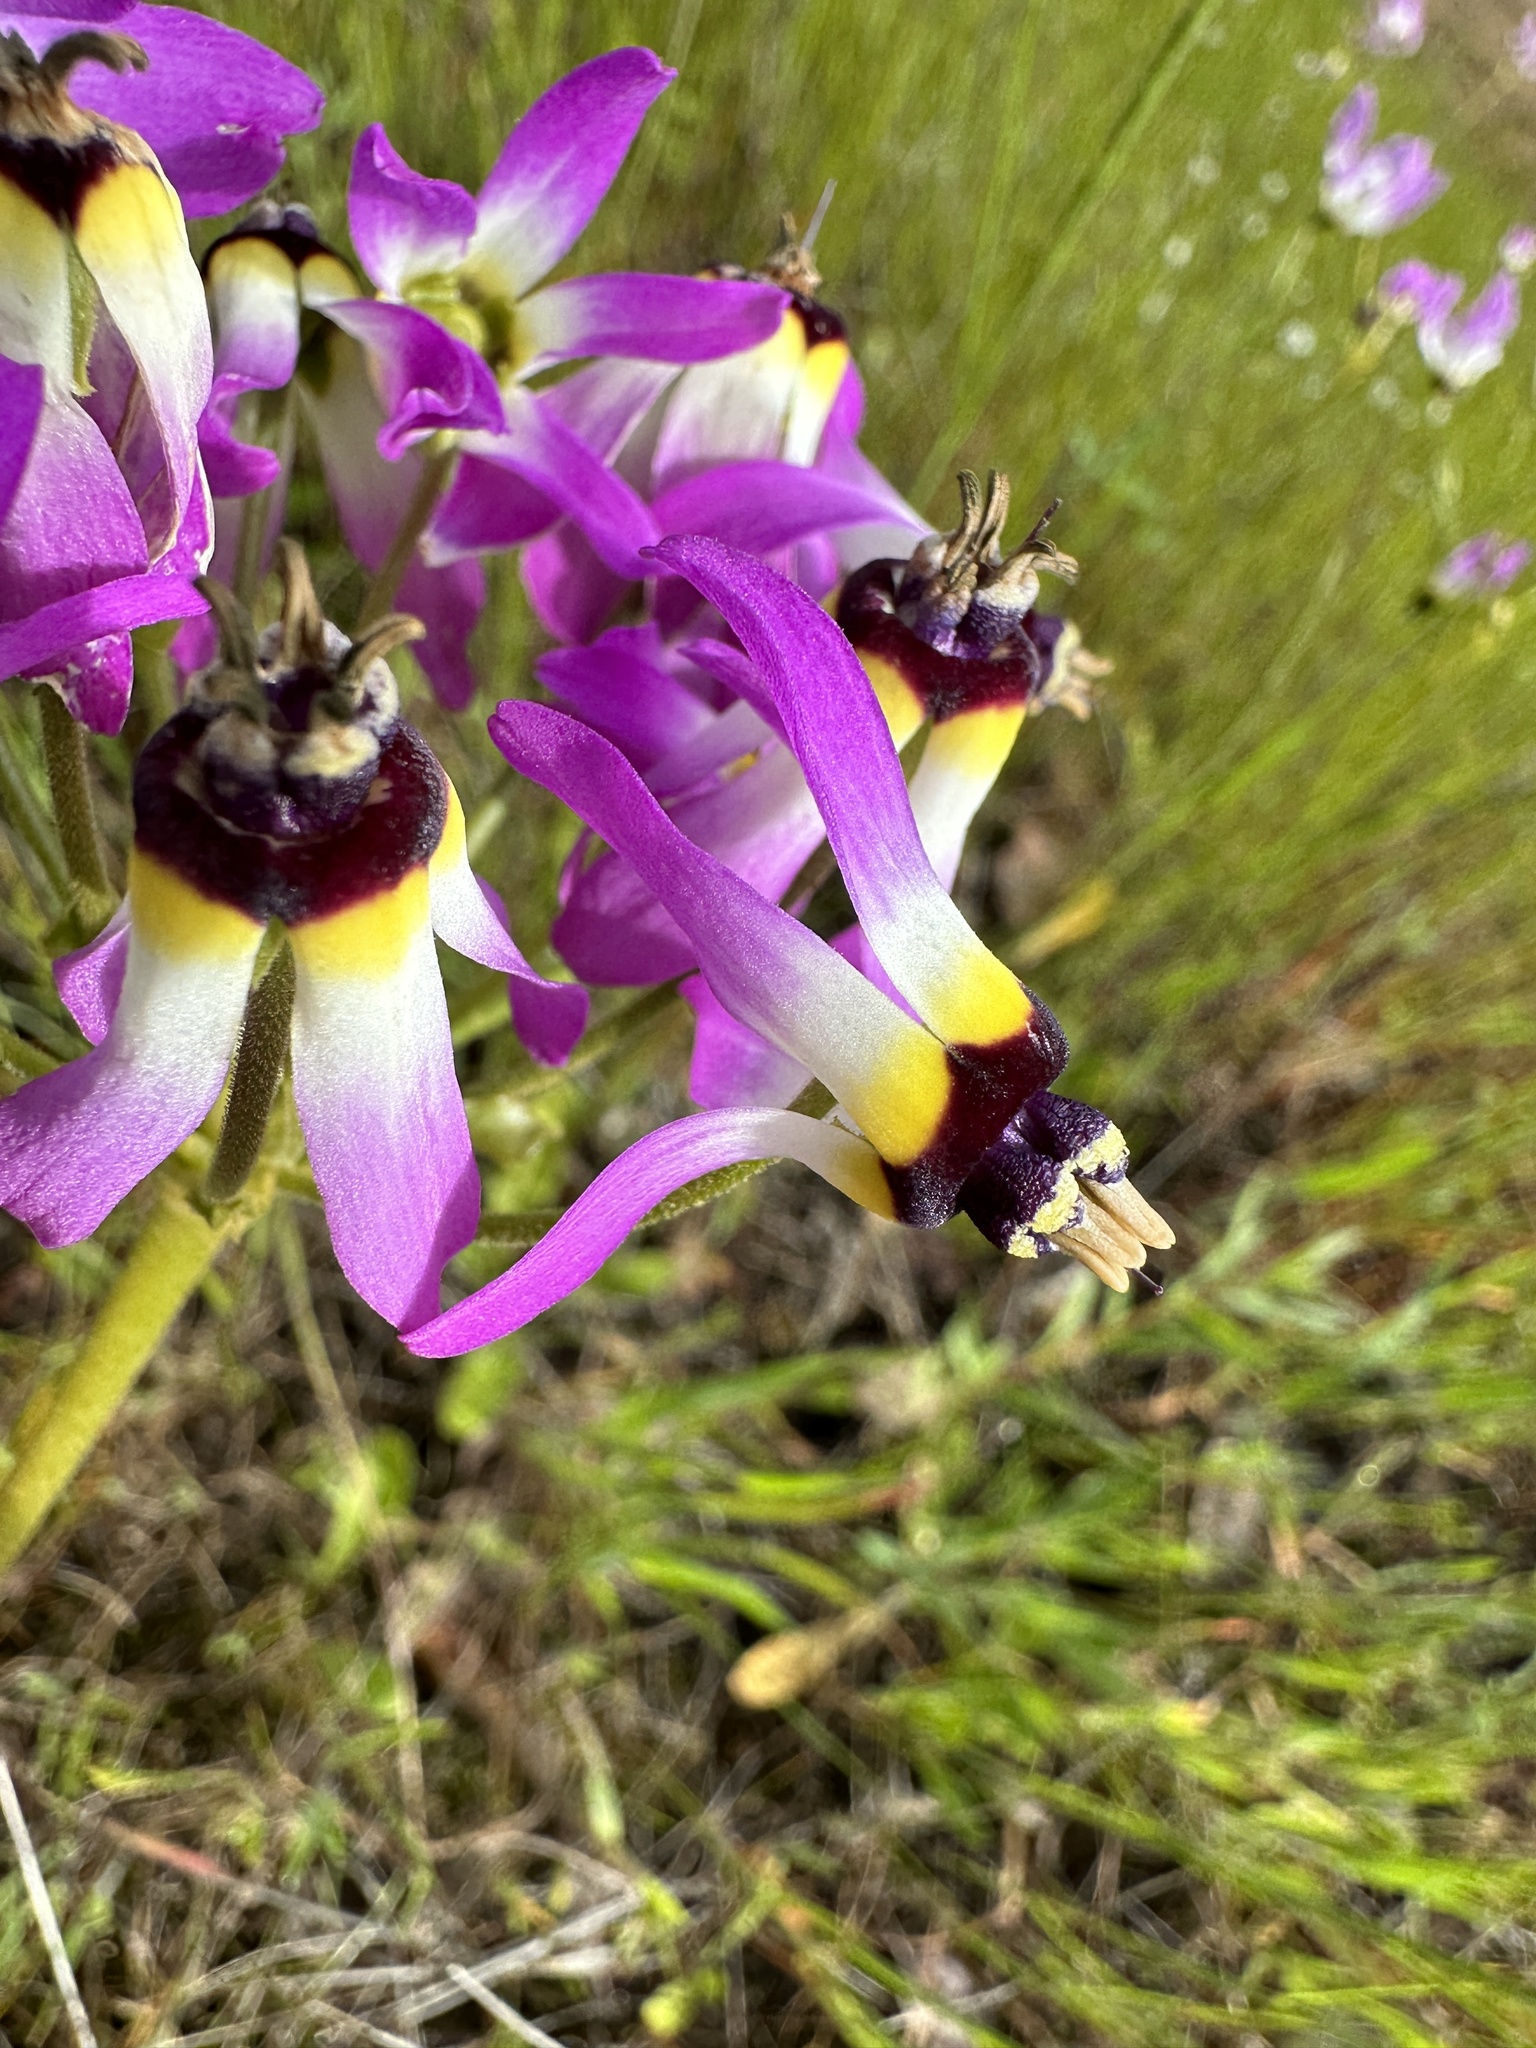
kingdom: Plantae
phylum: Tracheophyta
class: Magnoliopsida
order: Ericales
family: Primulaceae
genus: Dodecatheon
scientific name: Dodecatheon clevelandii
